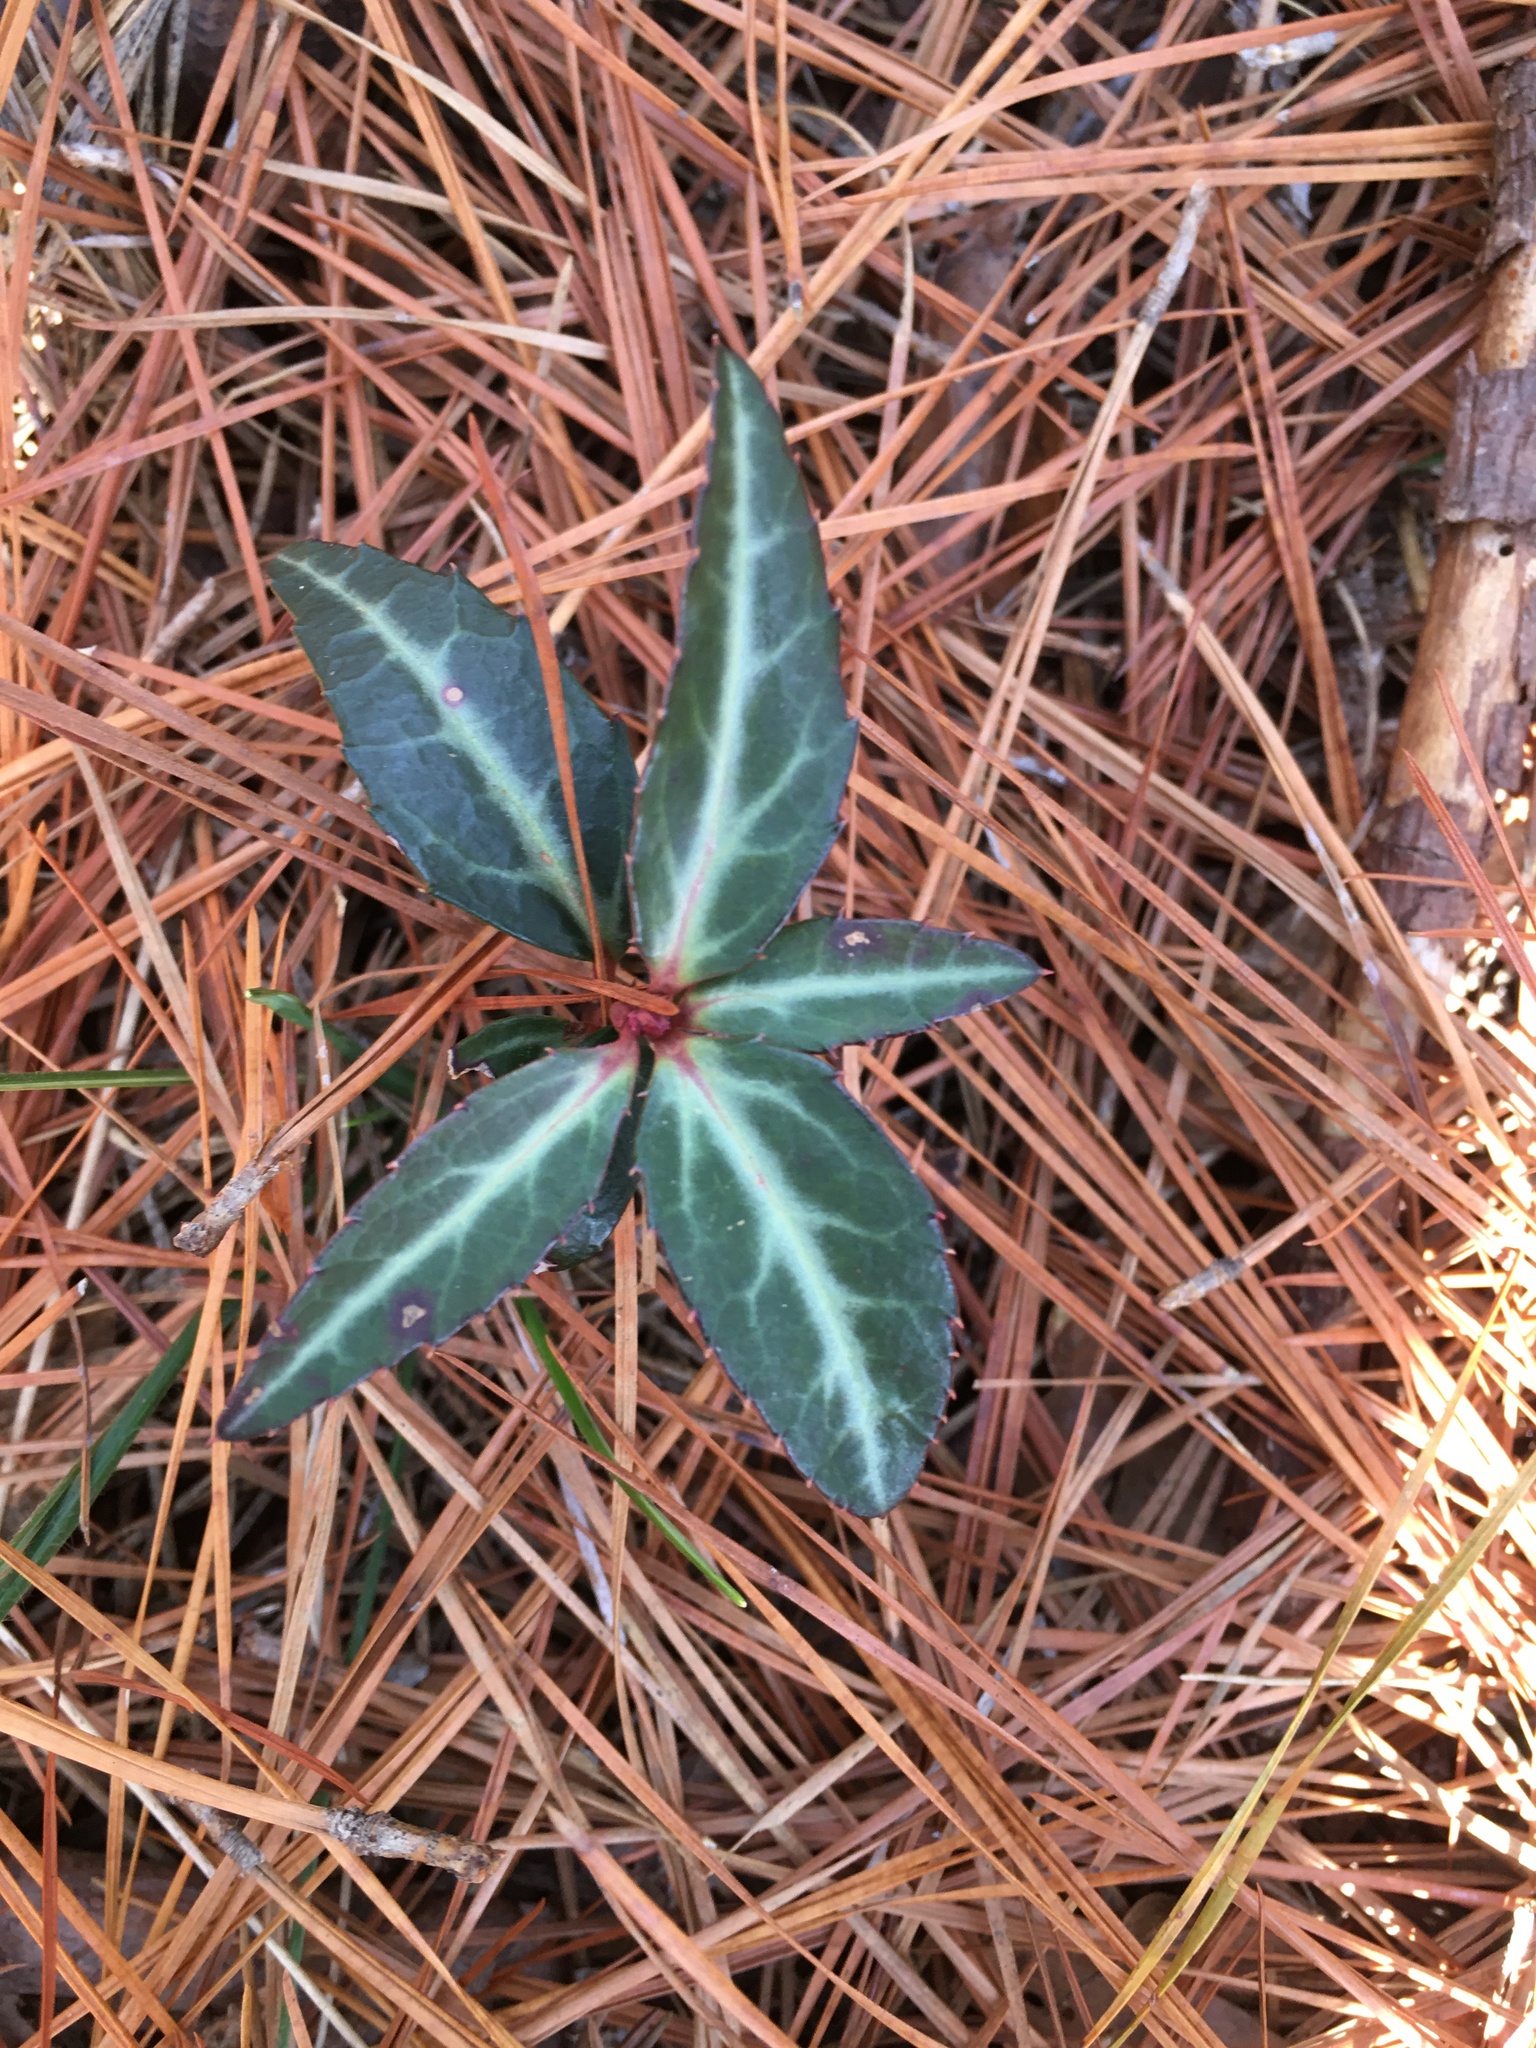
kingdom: Plantae
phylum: Tracheophyta
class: Magnoliopsida
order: Ericales
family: Ericaceae
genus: Chimaphila
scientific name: Chimaphila maculata
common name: Spotted pipsissewa
